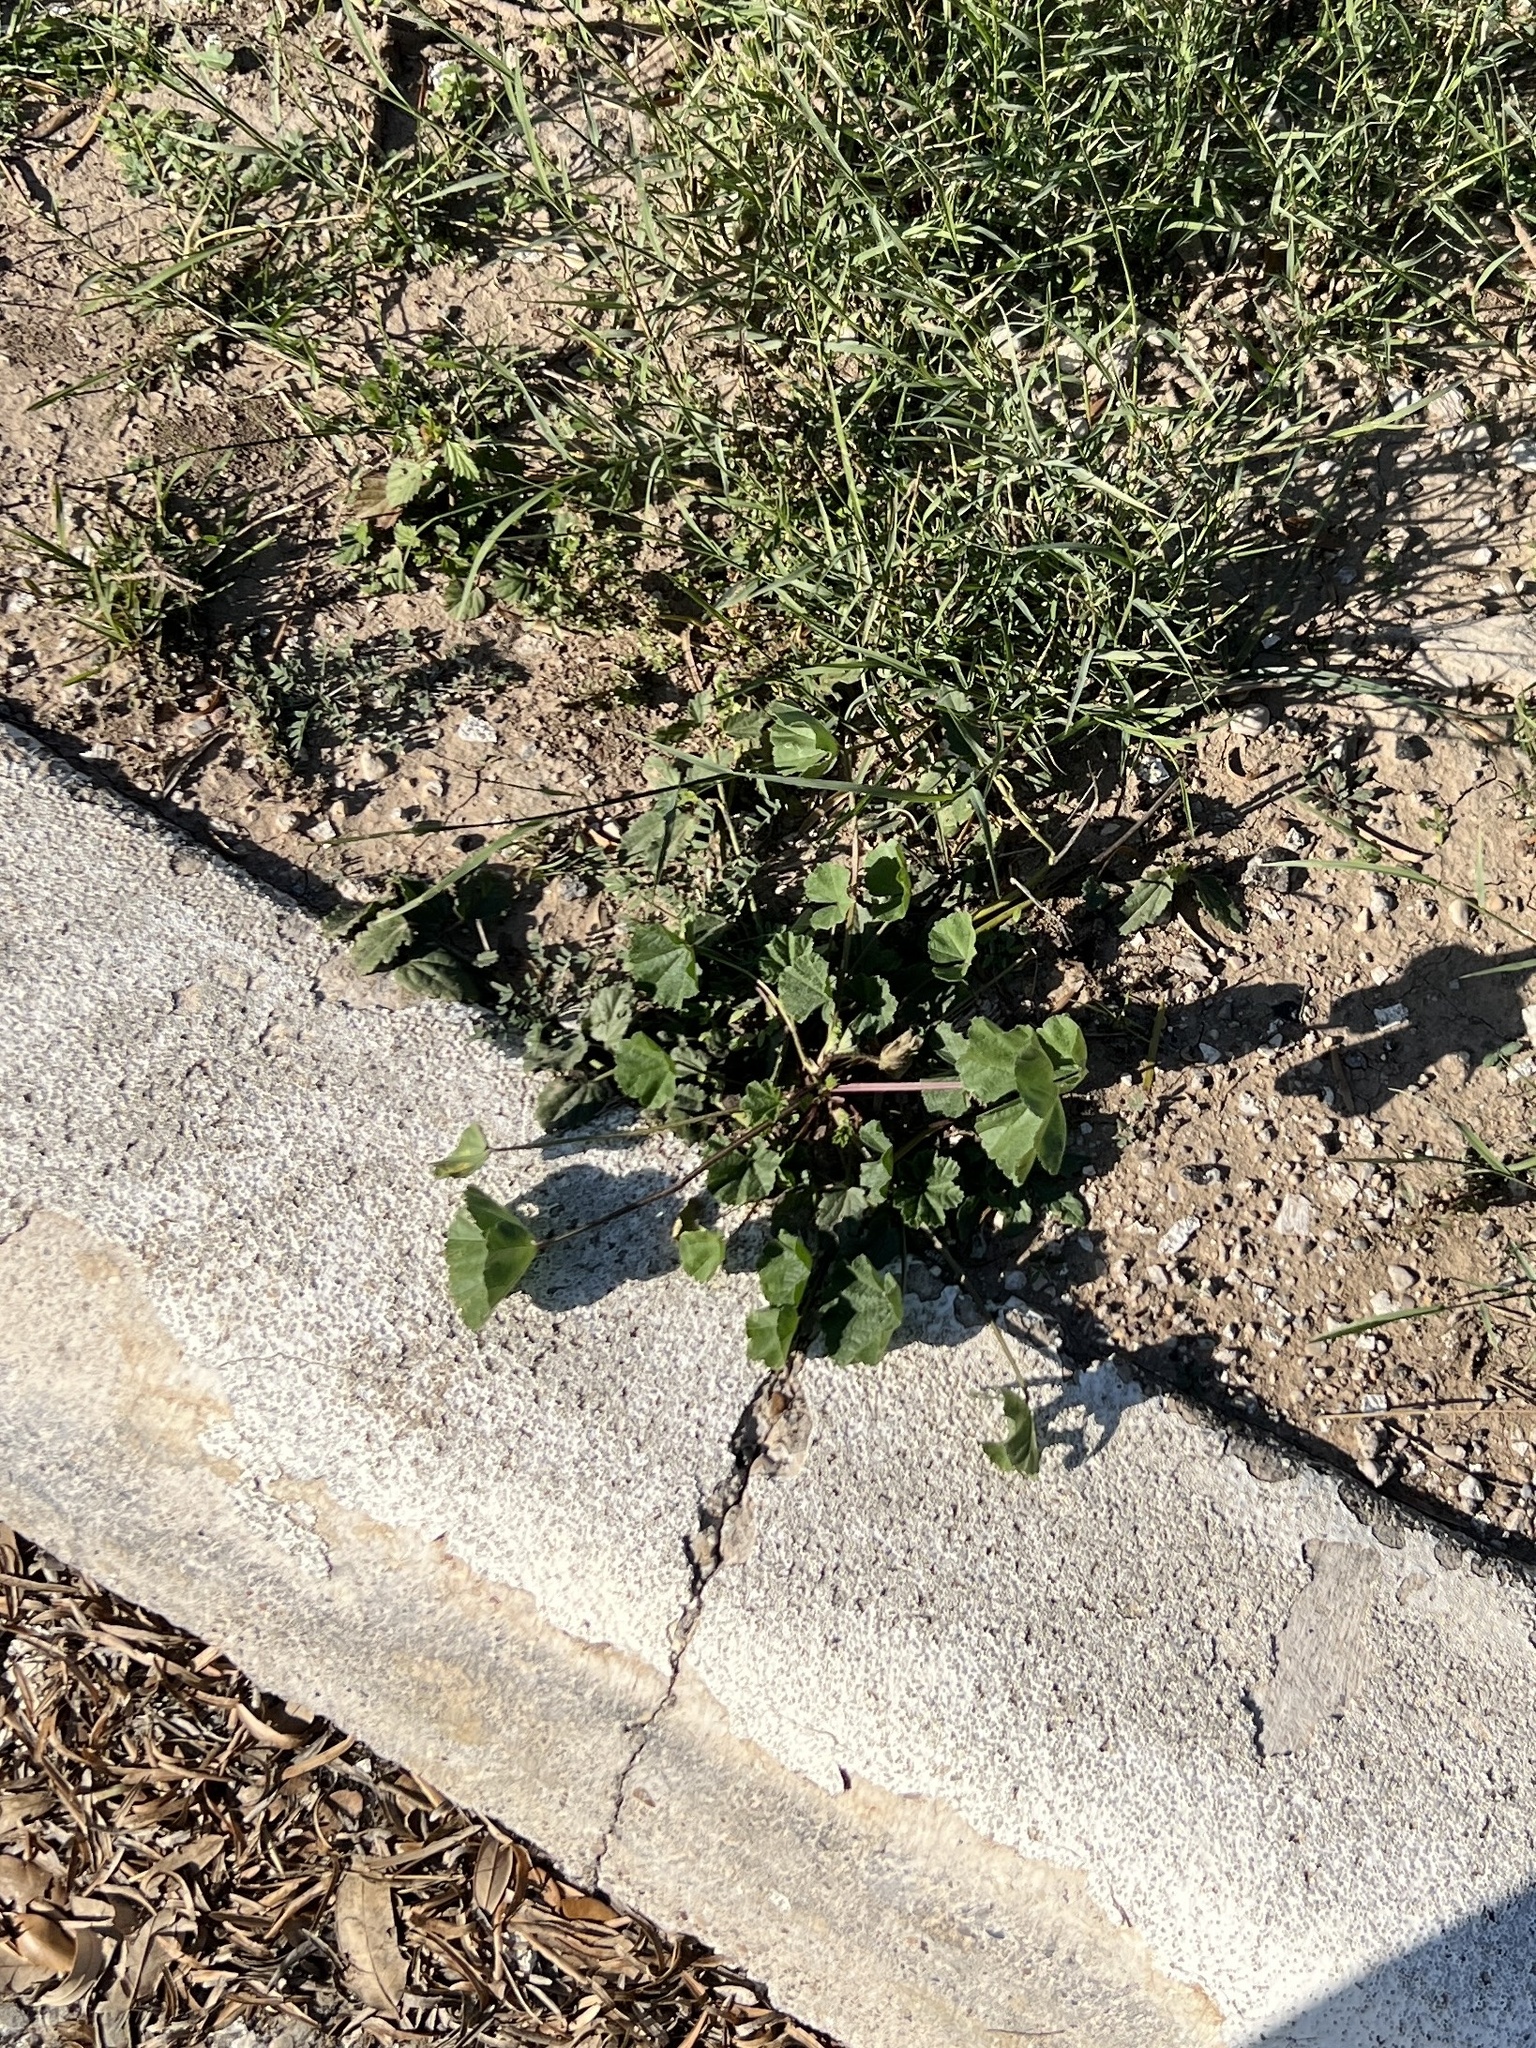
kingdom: Plantae
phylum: Tracheophyta
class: Magnoliopsida
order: Malvales
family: Malvaceae
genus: Malva
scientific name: Malva parviflora
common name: Least mallow
